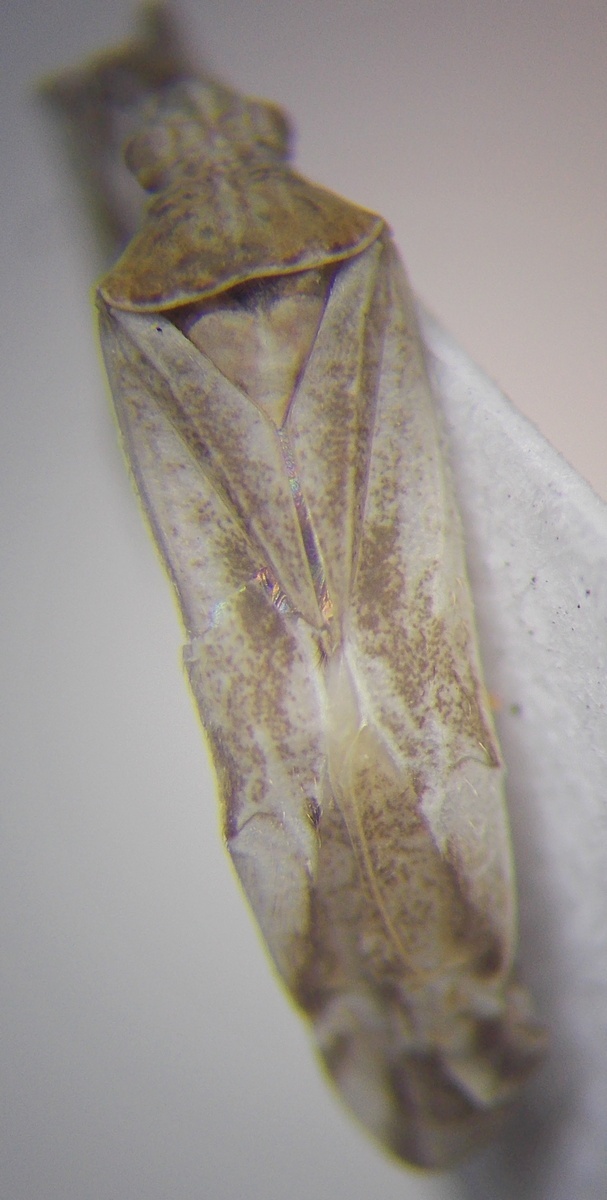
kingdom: Animalia
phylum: Arthropoda
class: Insecta
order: Hemiptera
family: Miridae
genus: Phytocoris
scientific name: Phytocoris niveatus
